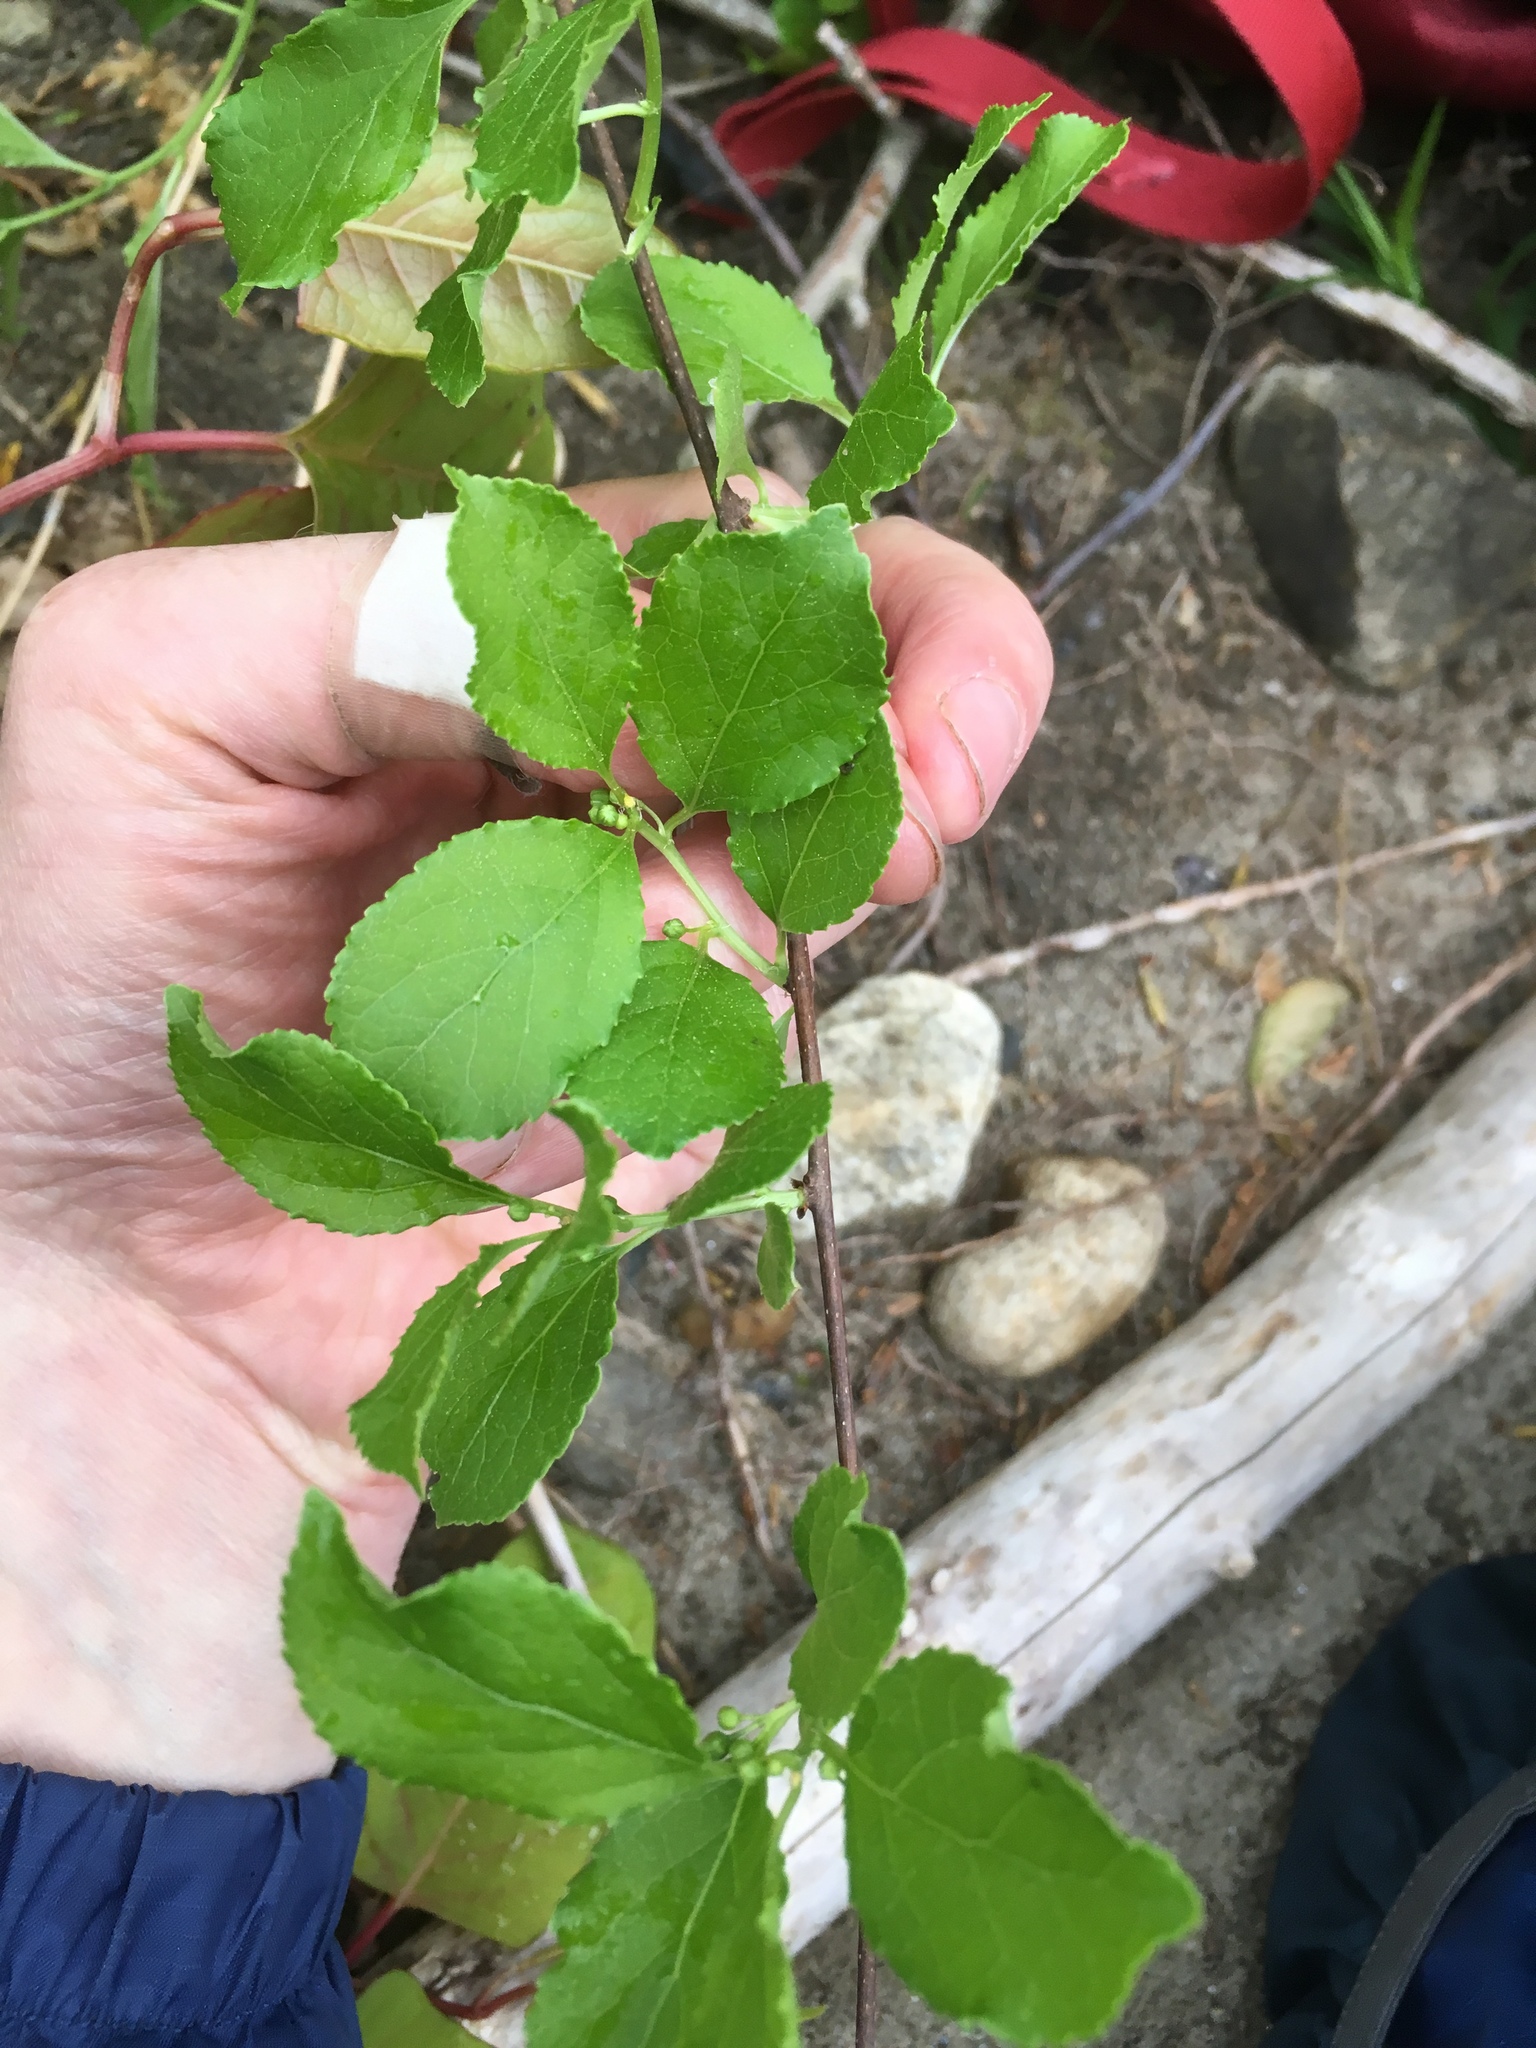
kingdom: Plantae
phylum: Tracheophyta
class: Magnoliopsida
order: Celastrales
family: Celastraceae
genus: Celastrus
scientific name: Celastrus orbiculatus
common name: Oriental bittersweet
